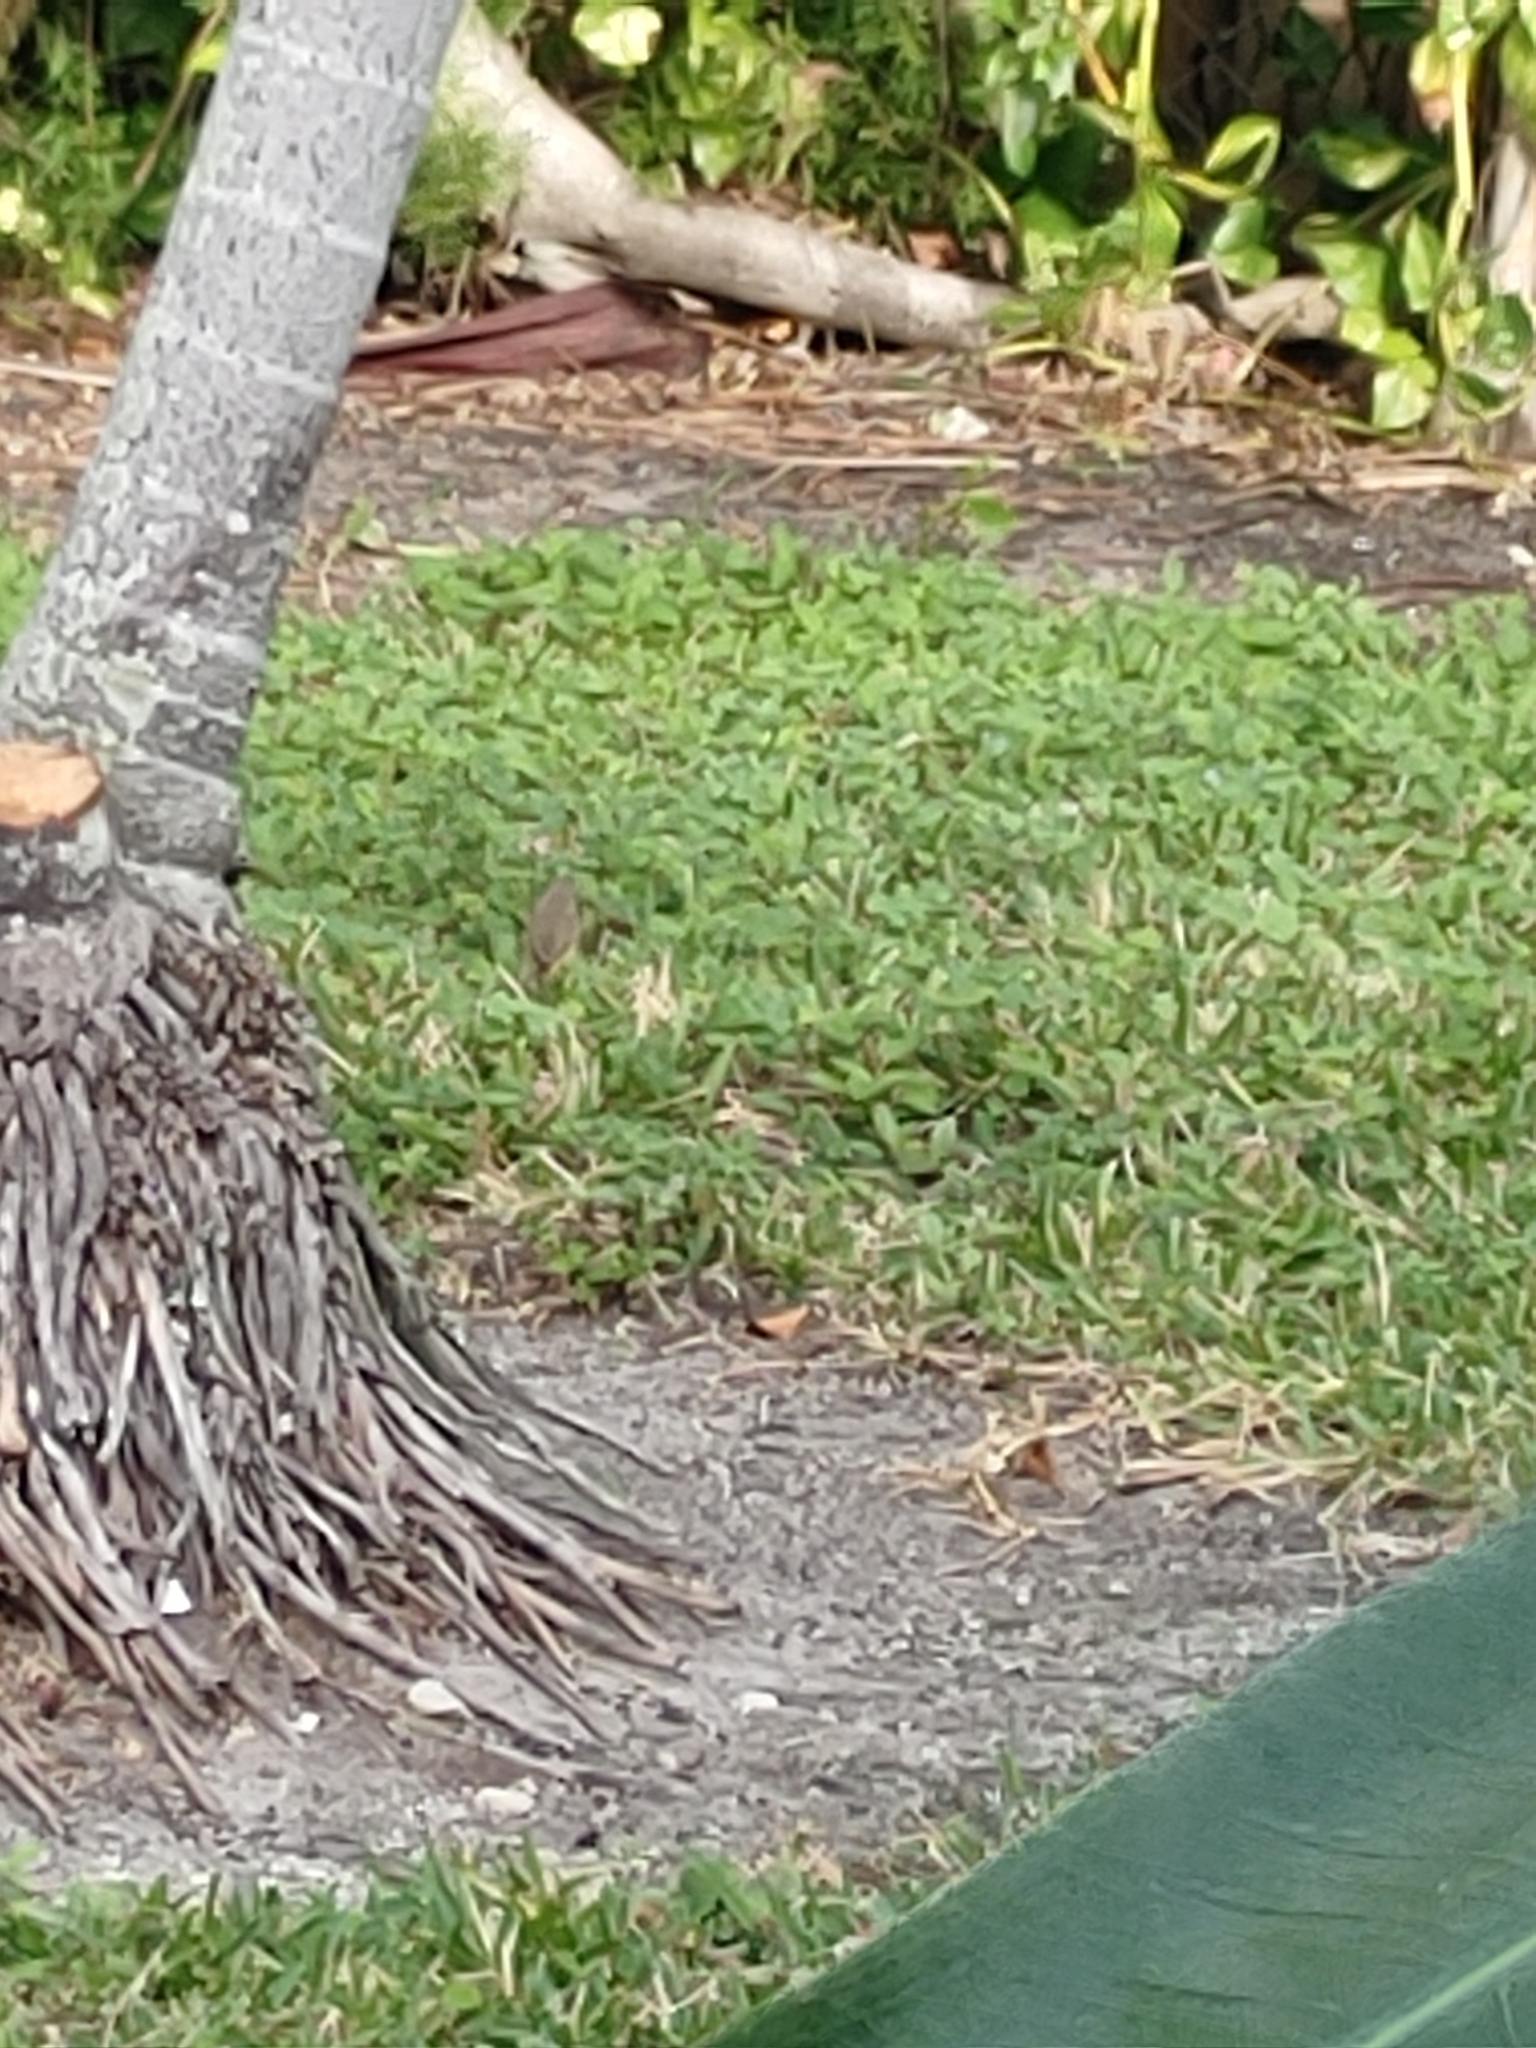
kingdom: Animalia
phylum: Chordata
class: Aves
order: Passeriformes
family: Parulidae
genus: Setophaga
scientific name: Setophaga palmarum
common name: Palm warbler
